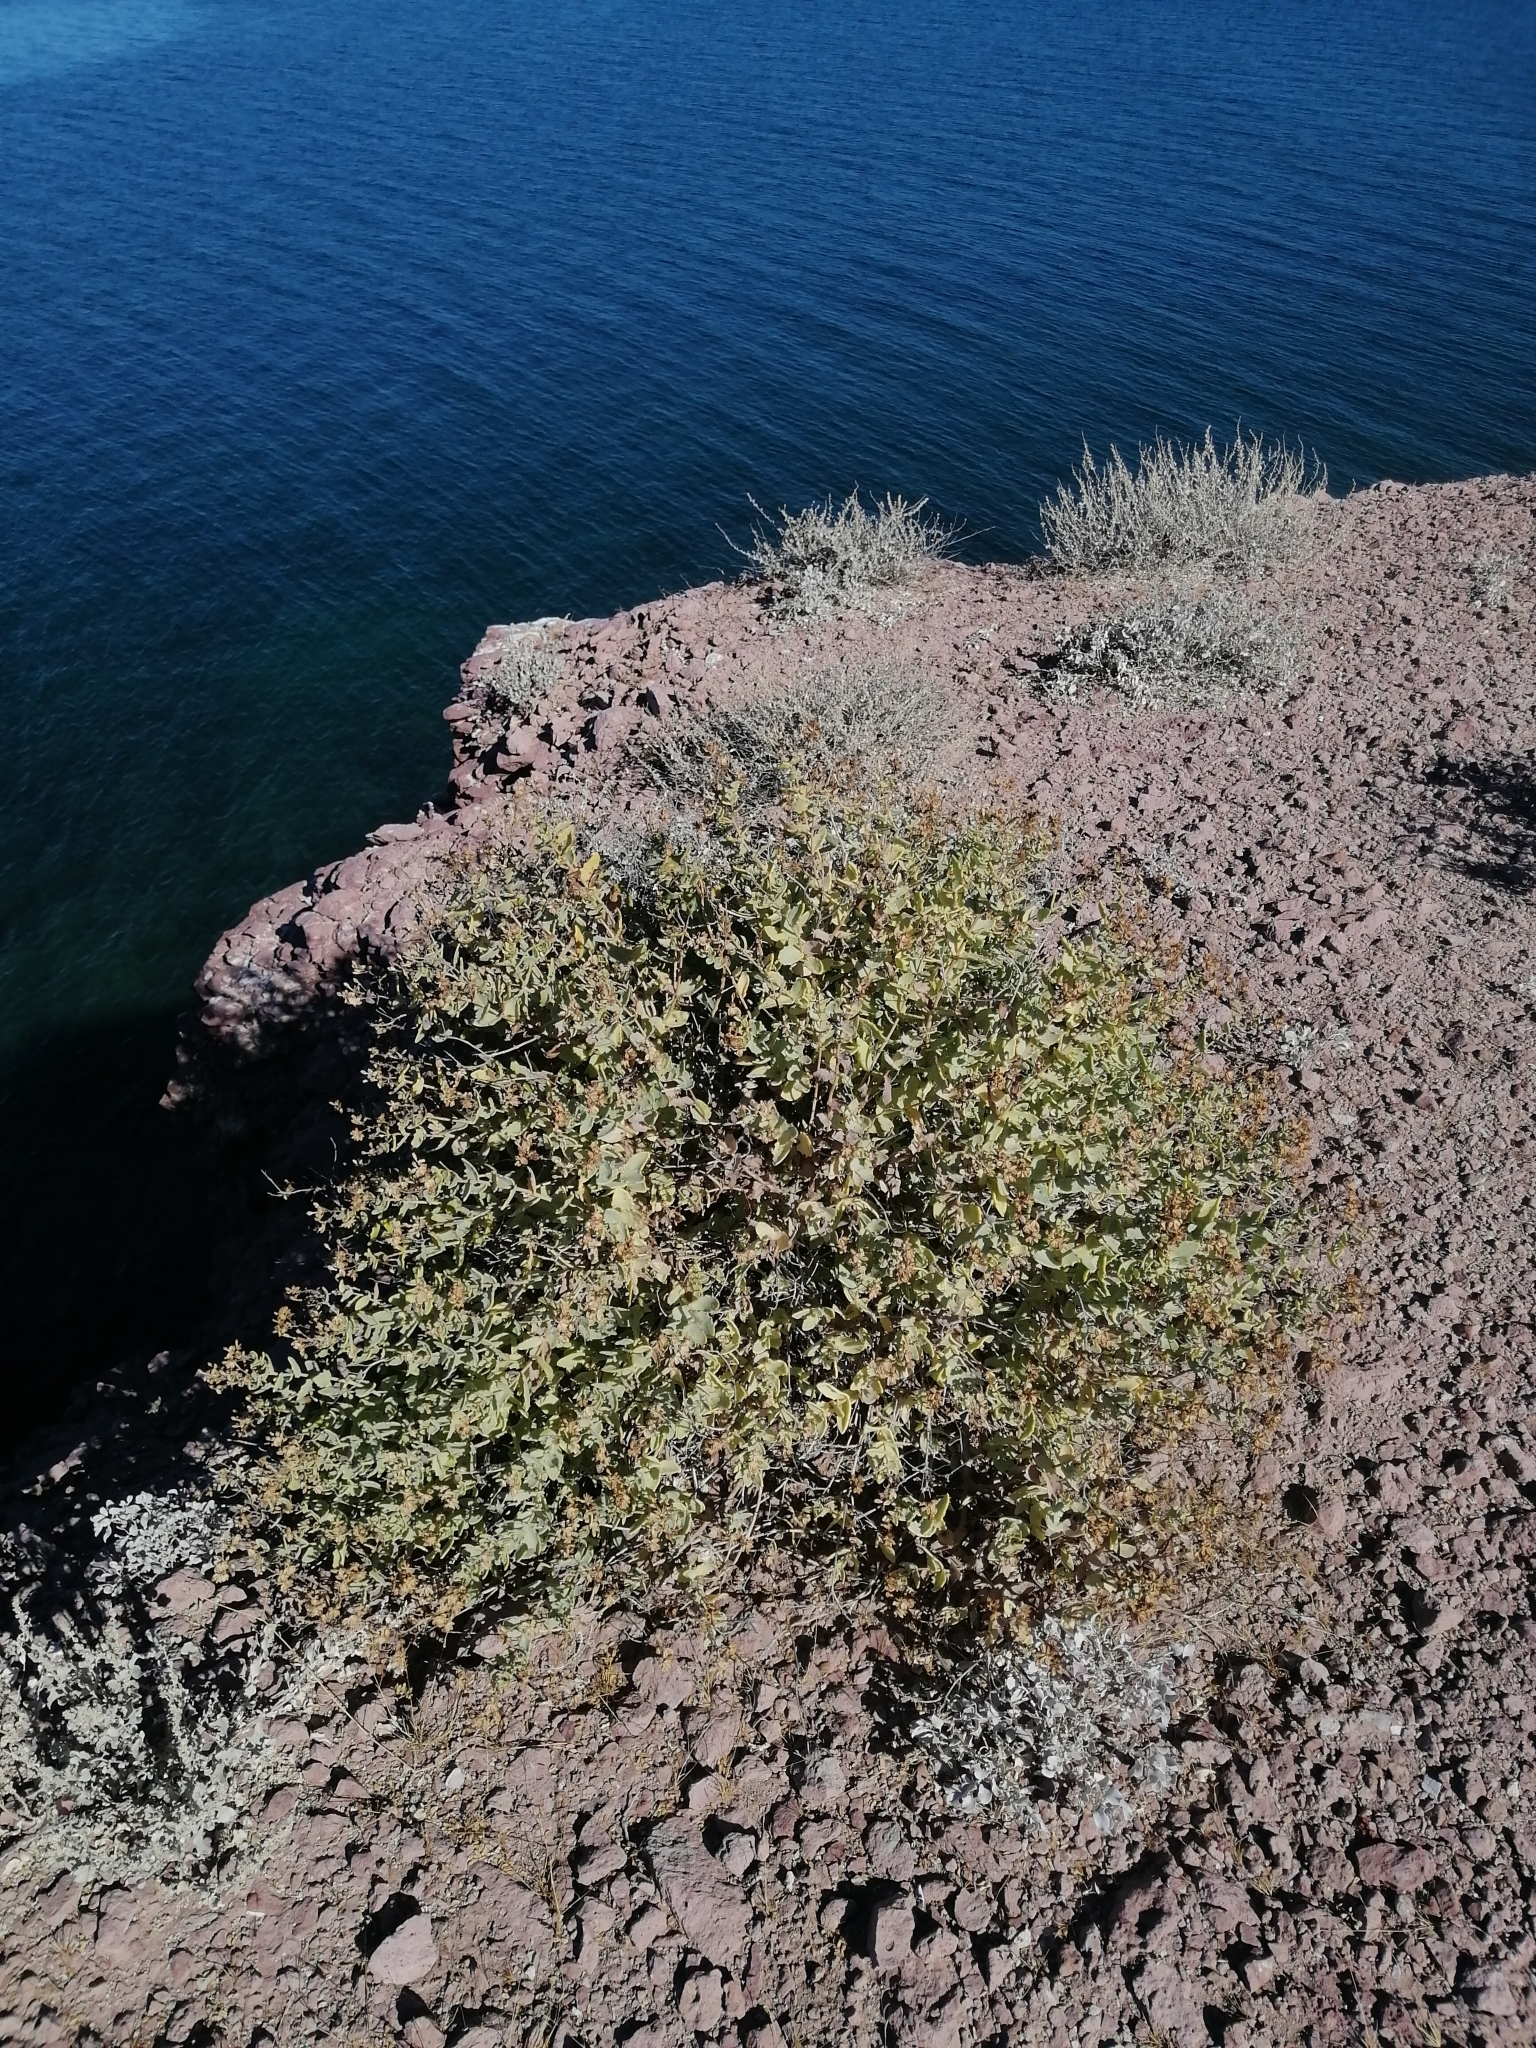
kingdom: Plantae
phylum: Tracheophyta
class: Magnoliopsida
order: Asterales
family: Asteraceae
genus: Coulterella
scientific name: Coulterella capitata
